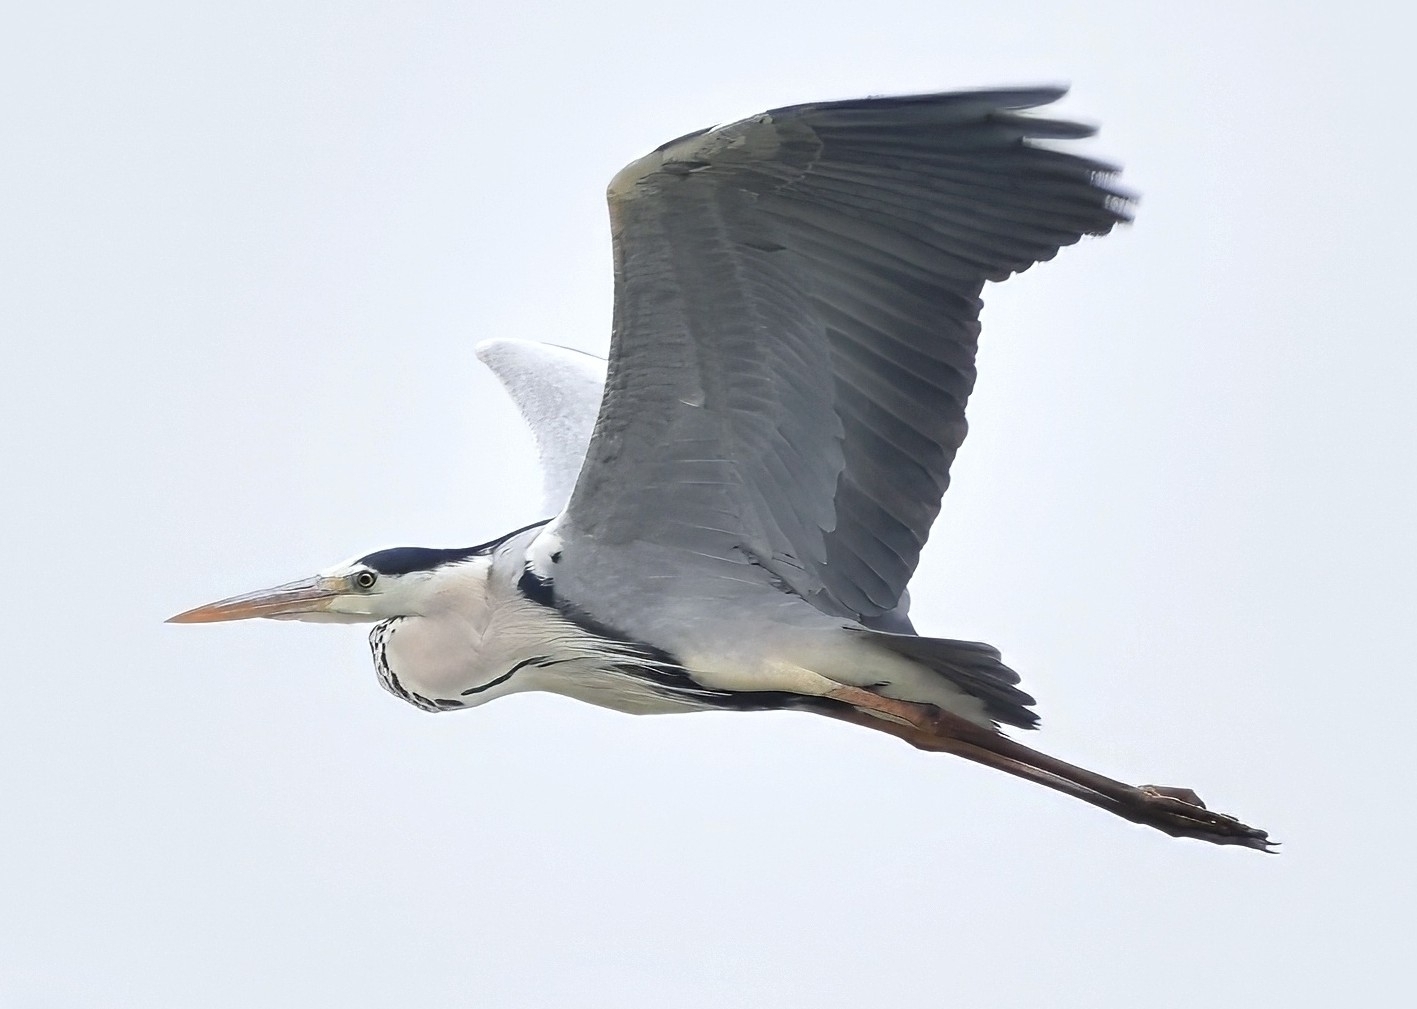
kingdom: Animalia
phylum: Chordata
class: Aves
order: Pelecaniformes
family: Ardeidae
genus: Ardea
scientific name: Ardea cinerea
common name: Grey heron
